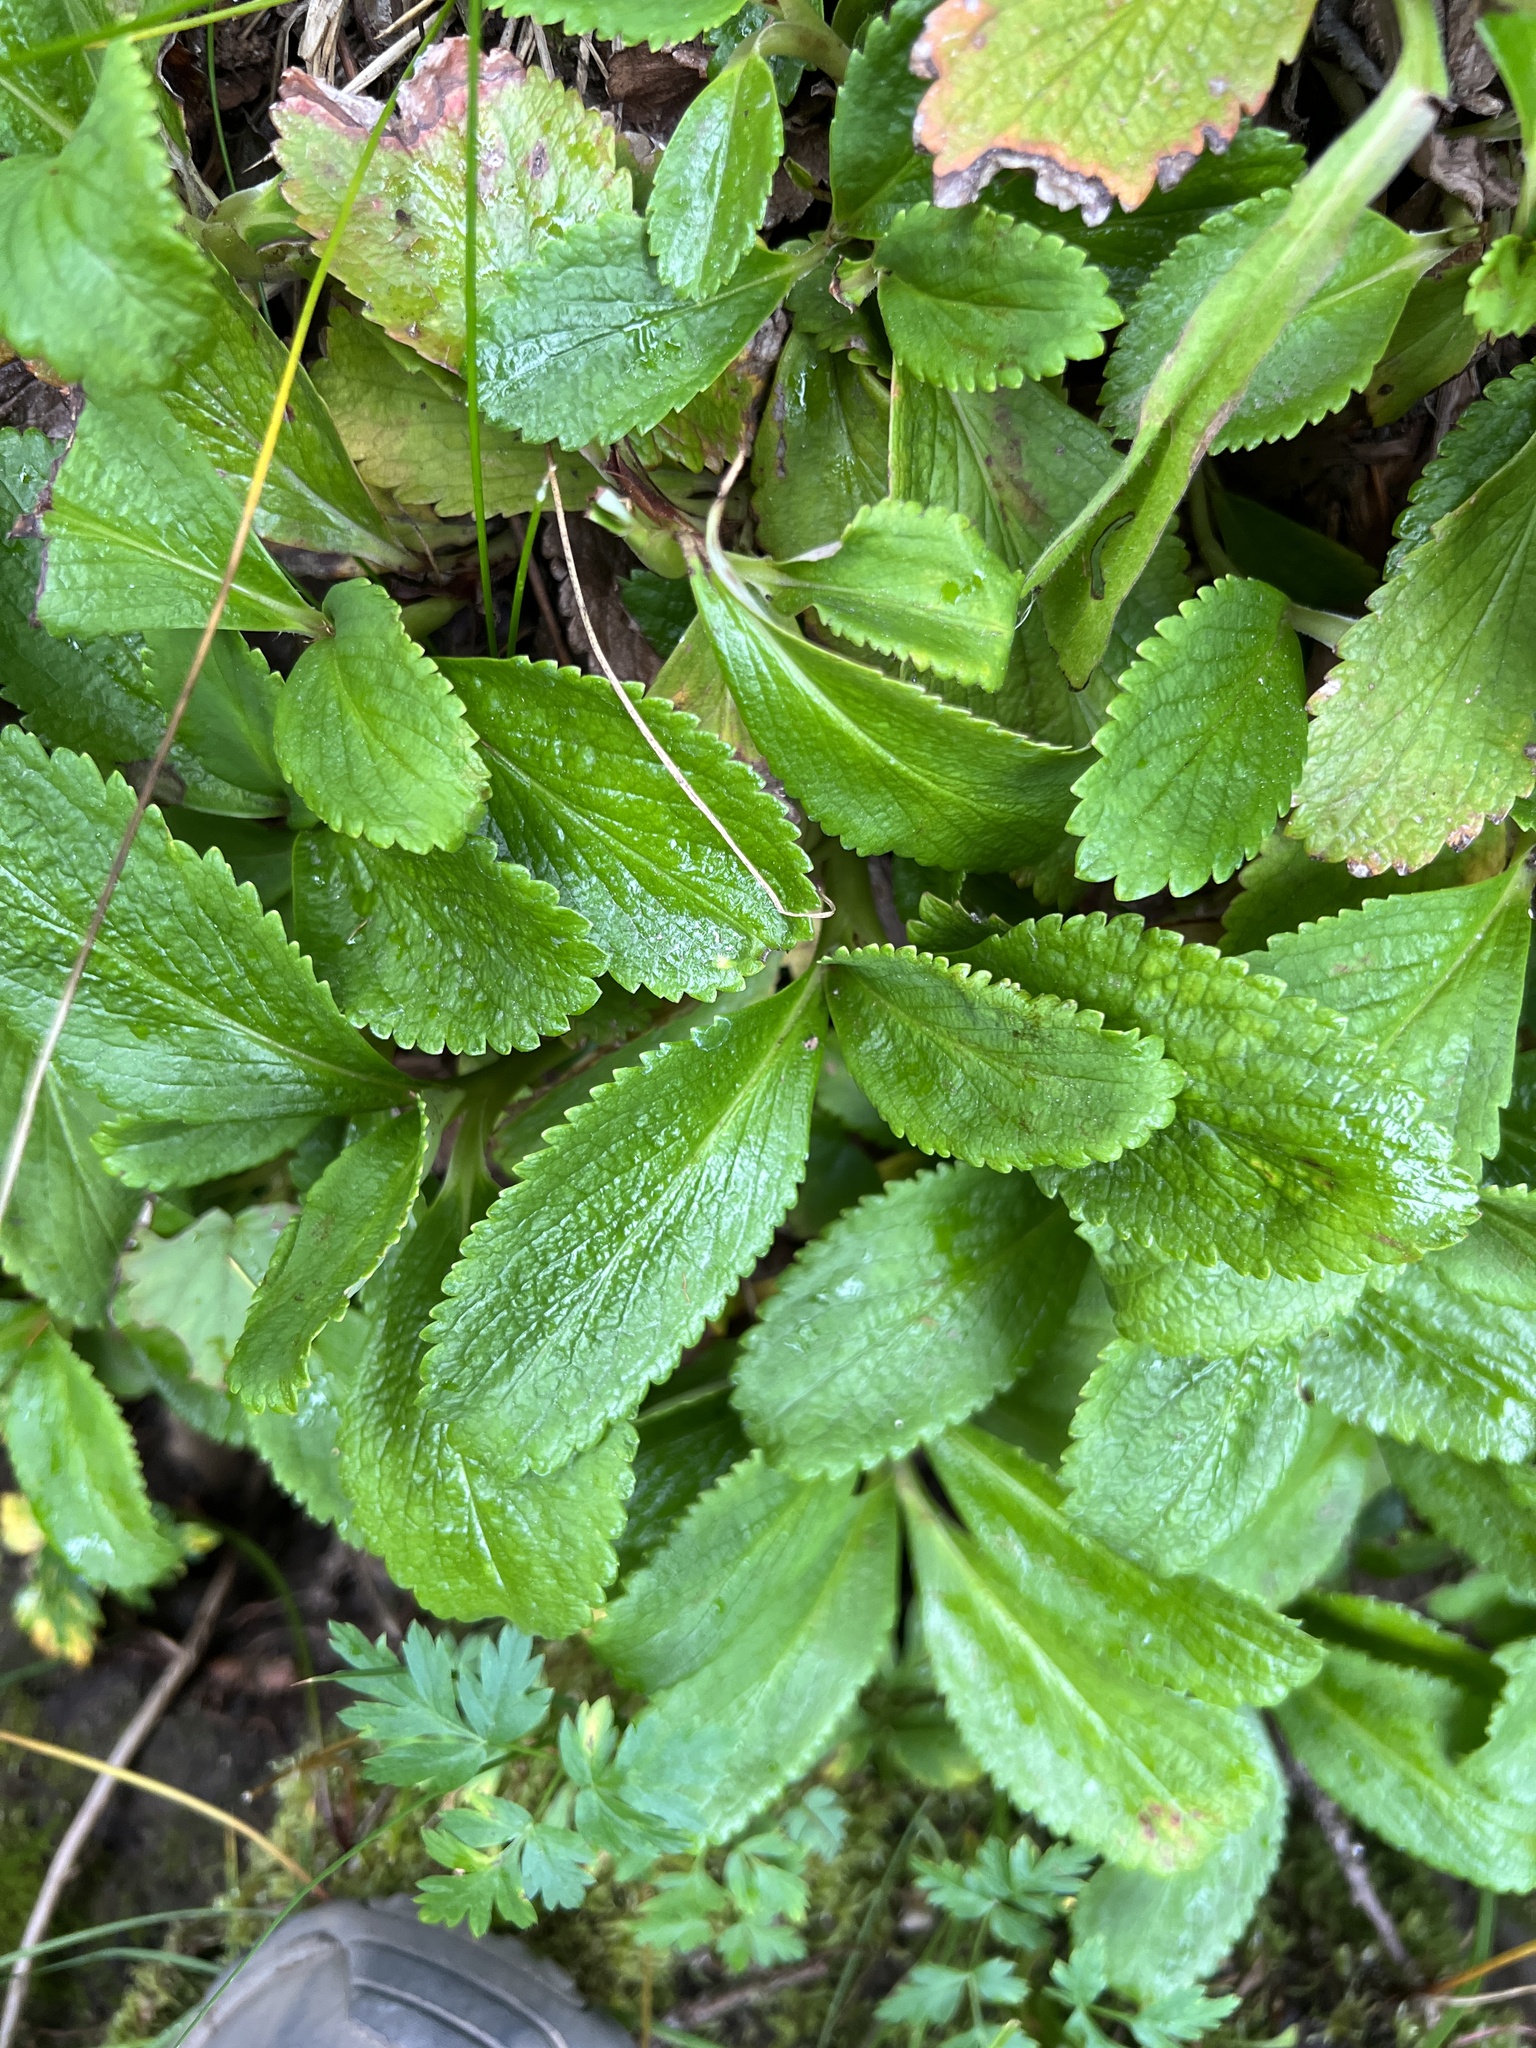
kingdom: Plantae
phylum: Tracheophyta
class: Magnoliopsida
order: Saxifragales
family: Saxifragaceae
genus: Leptarrhena
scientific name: Leptarrhena pyrolifolia
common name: Leatherleaf-saxifrage
